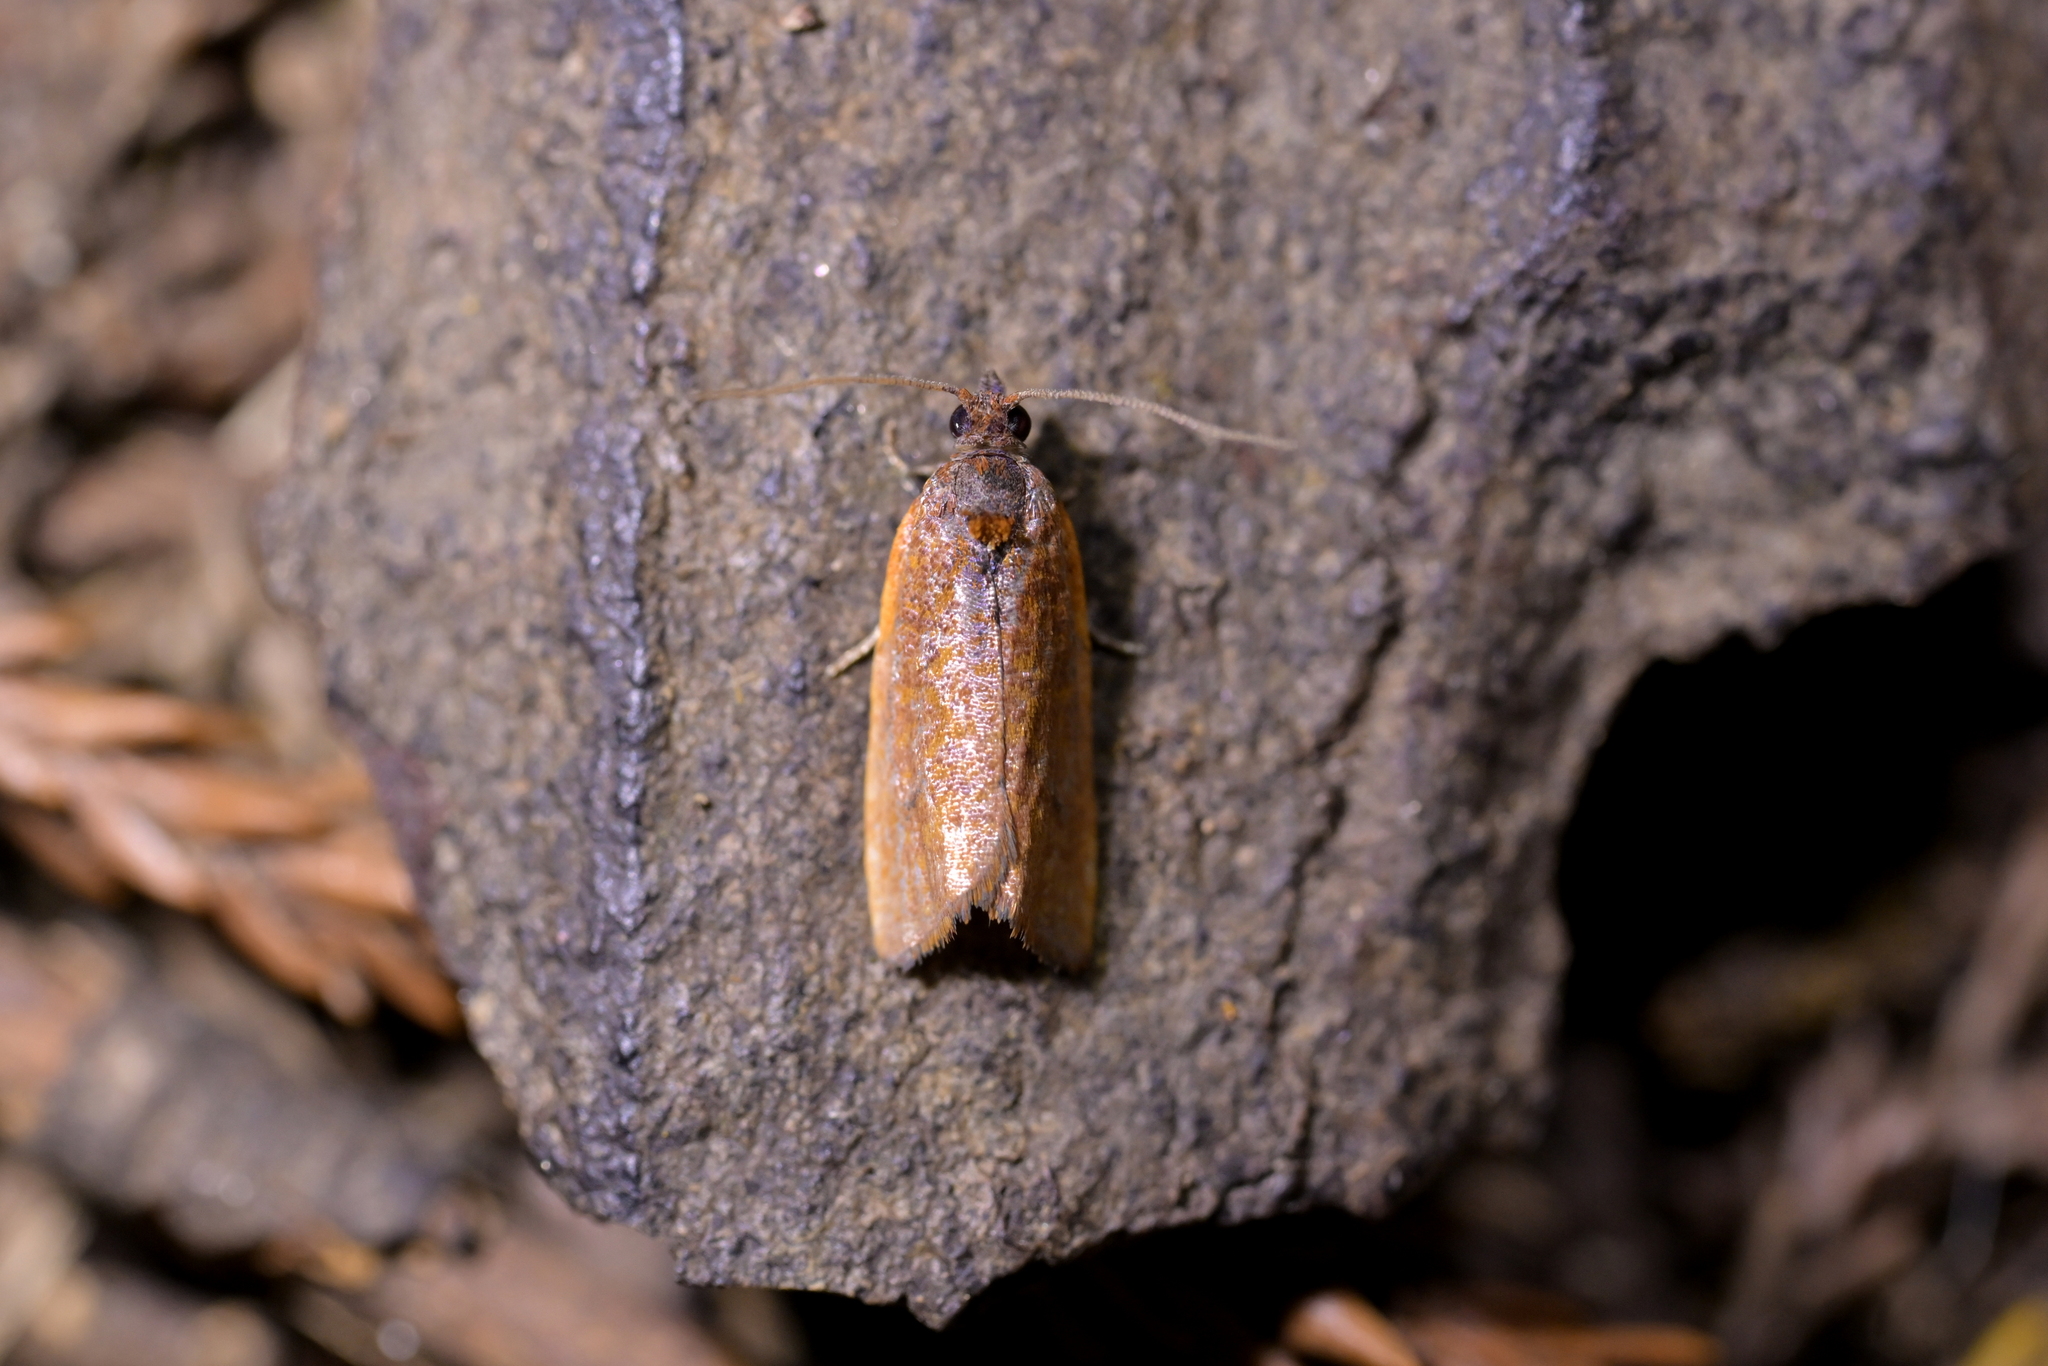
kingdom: Animalia
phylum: Arthropoda
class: Insecta
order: Lepidoptera
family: Tortricidae
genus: Pyrgotis
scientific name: Pyrgotis chrysomela
